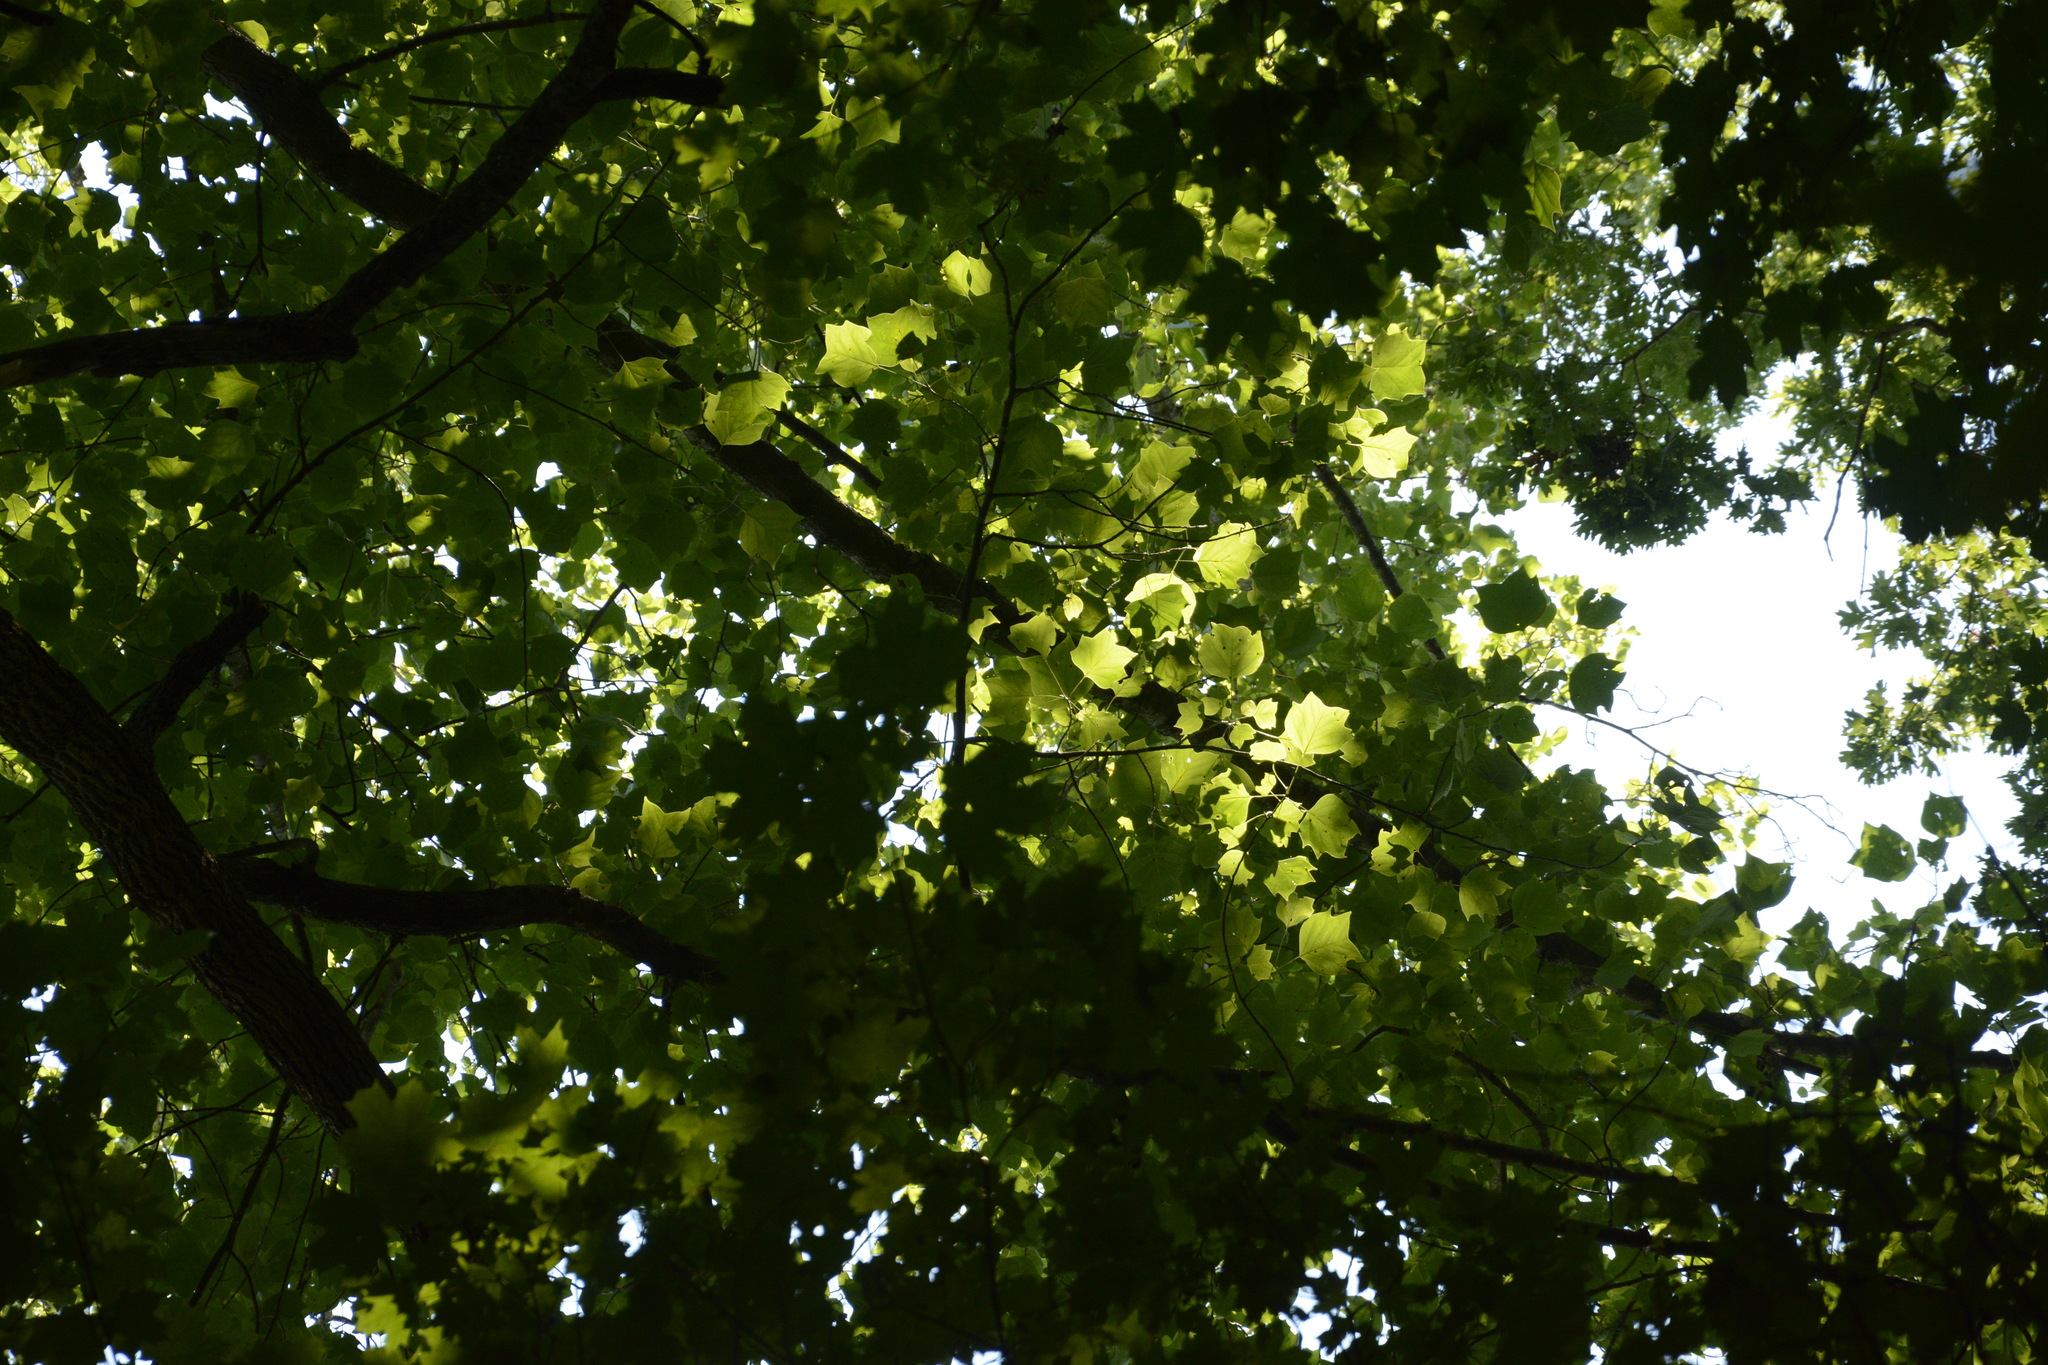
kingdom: Plantae
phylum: Tracheophyta
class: Magnoliopsida
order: Magnoliales
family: Magnoliaceae
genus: Liriodendron
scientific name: Liriodendron tulipifera
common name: Tulip tree
